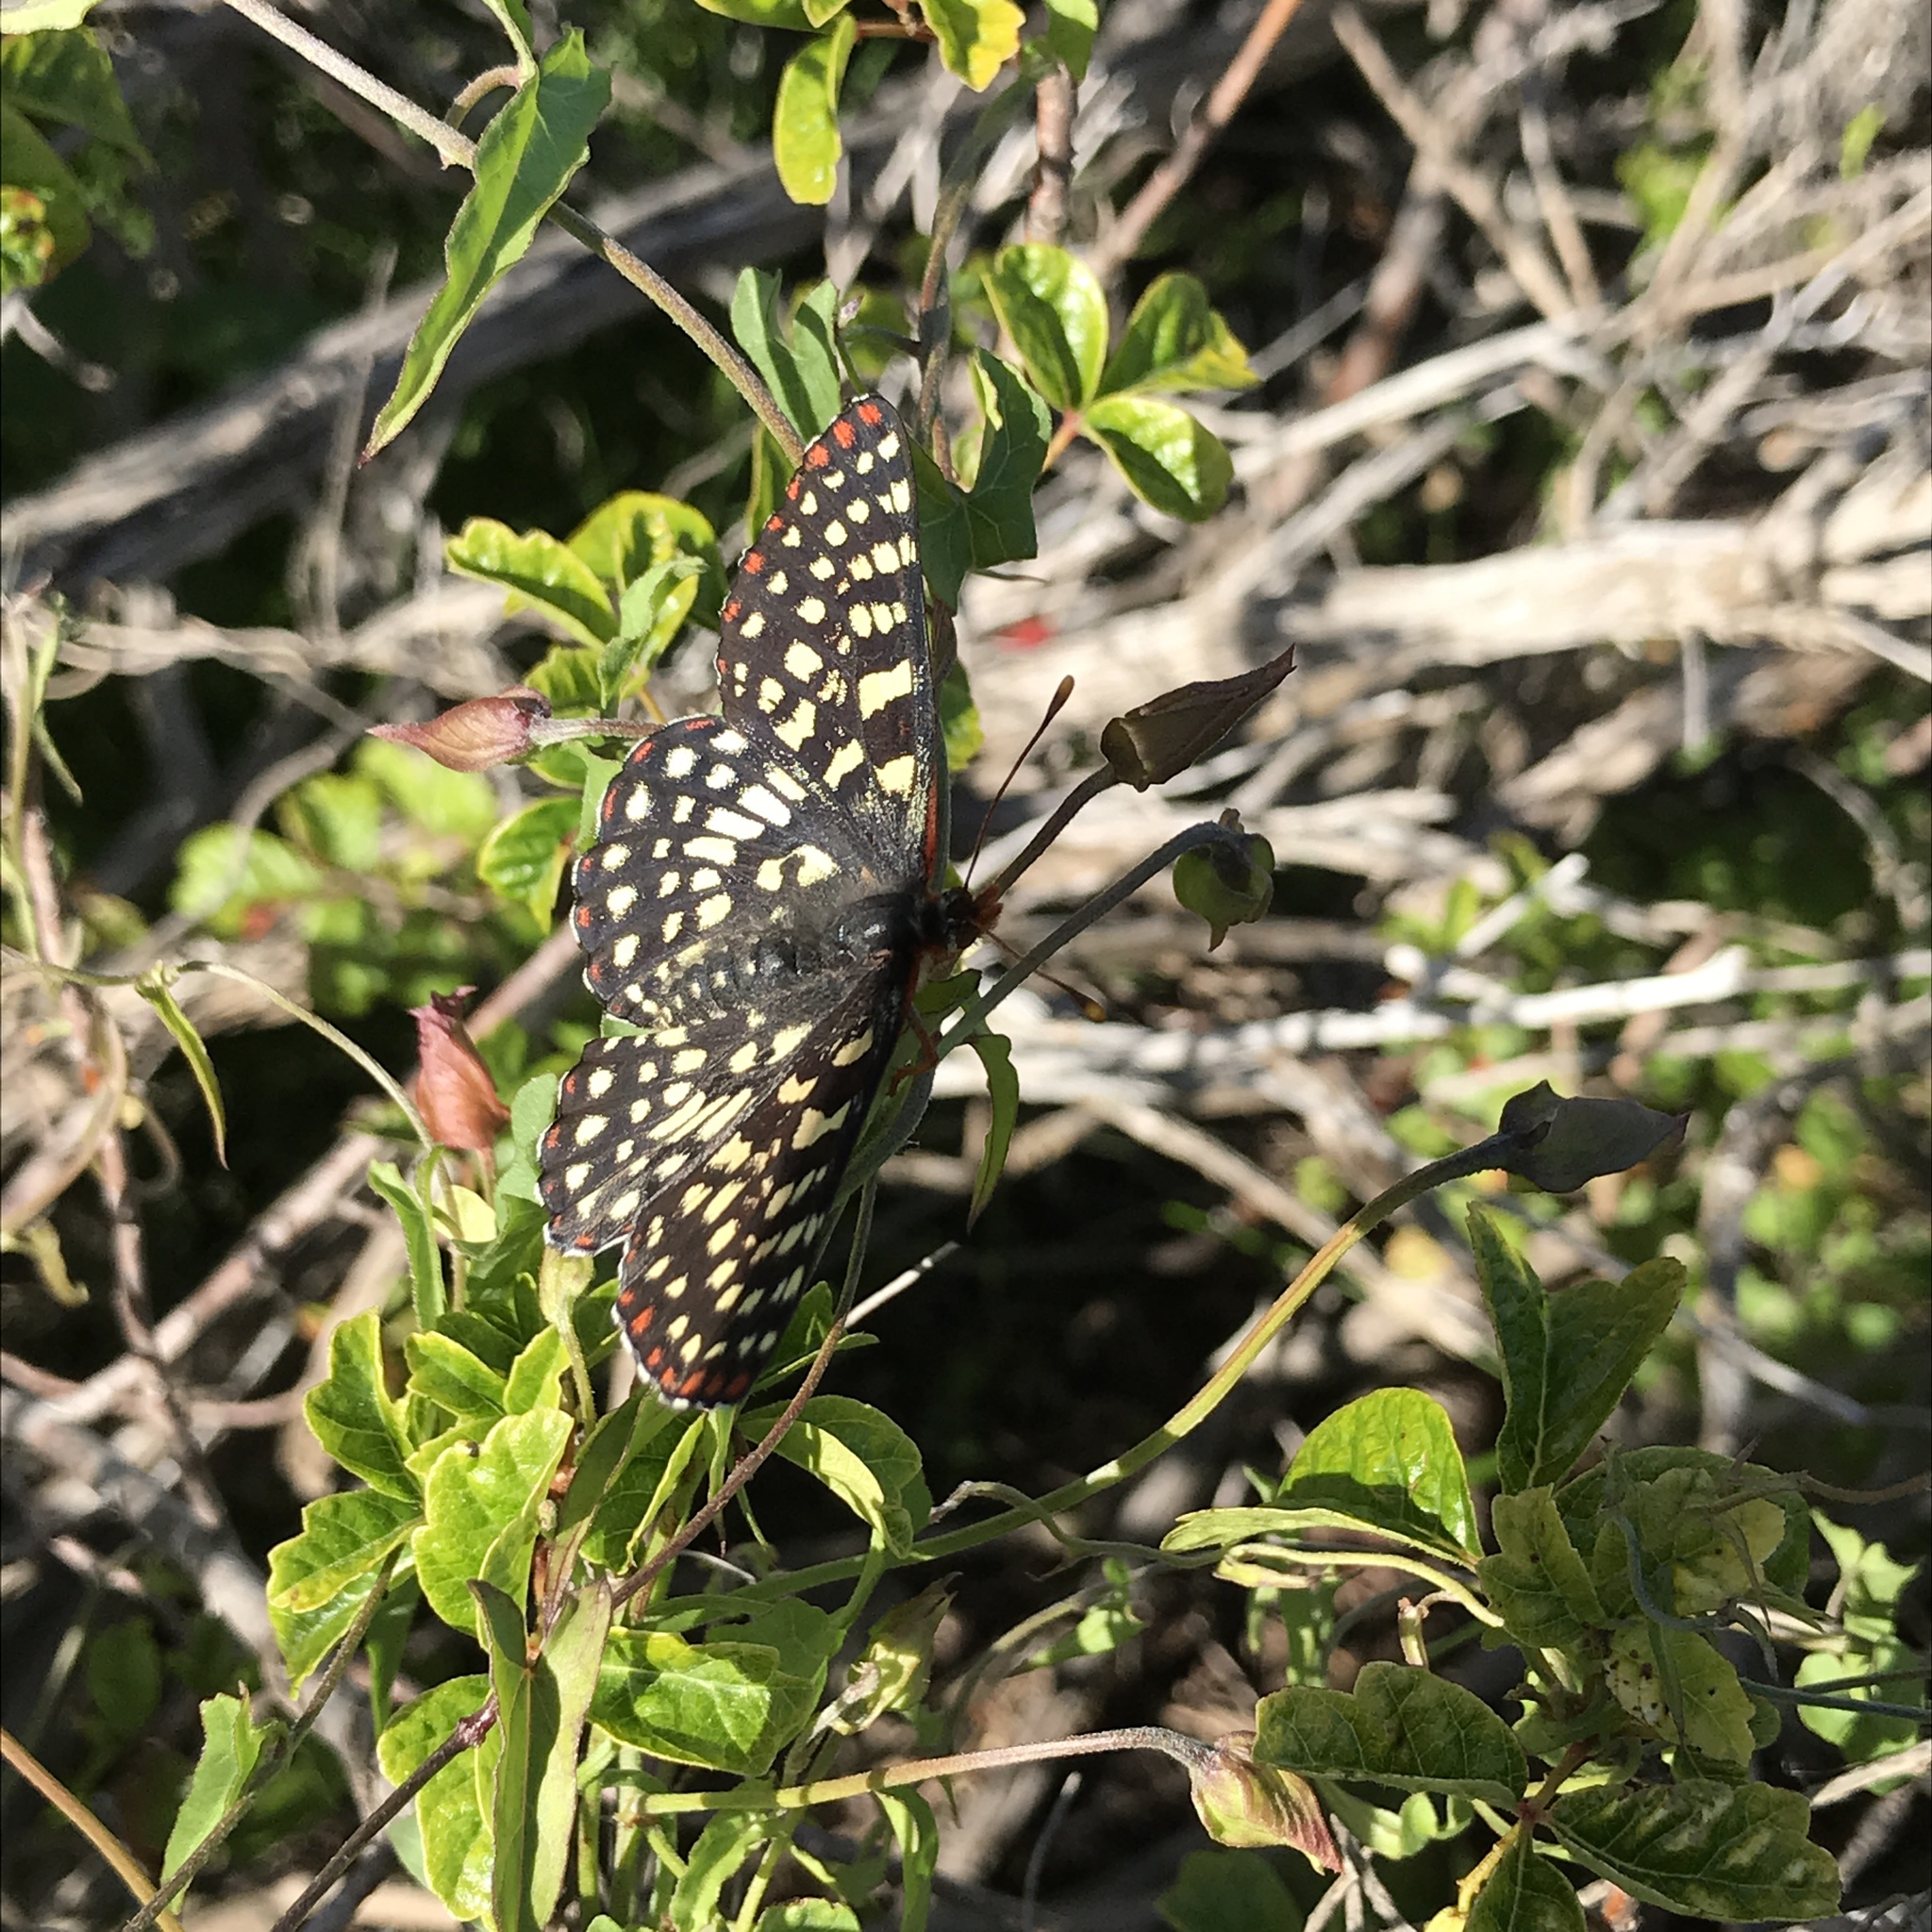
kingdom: Animalia
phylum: Arthropoda
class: Insecta
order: Lepidoptera
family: Nymphalidae
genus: Occidryas
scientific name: Occidryas chalcedona
